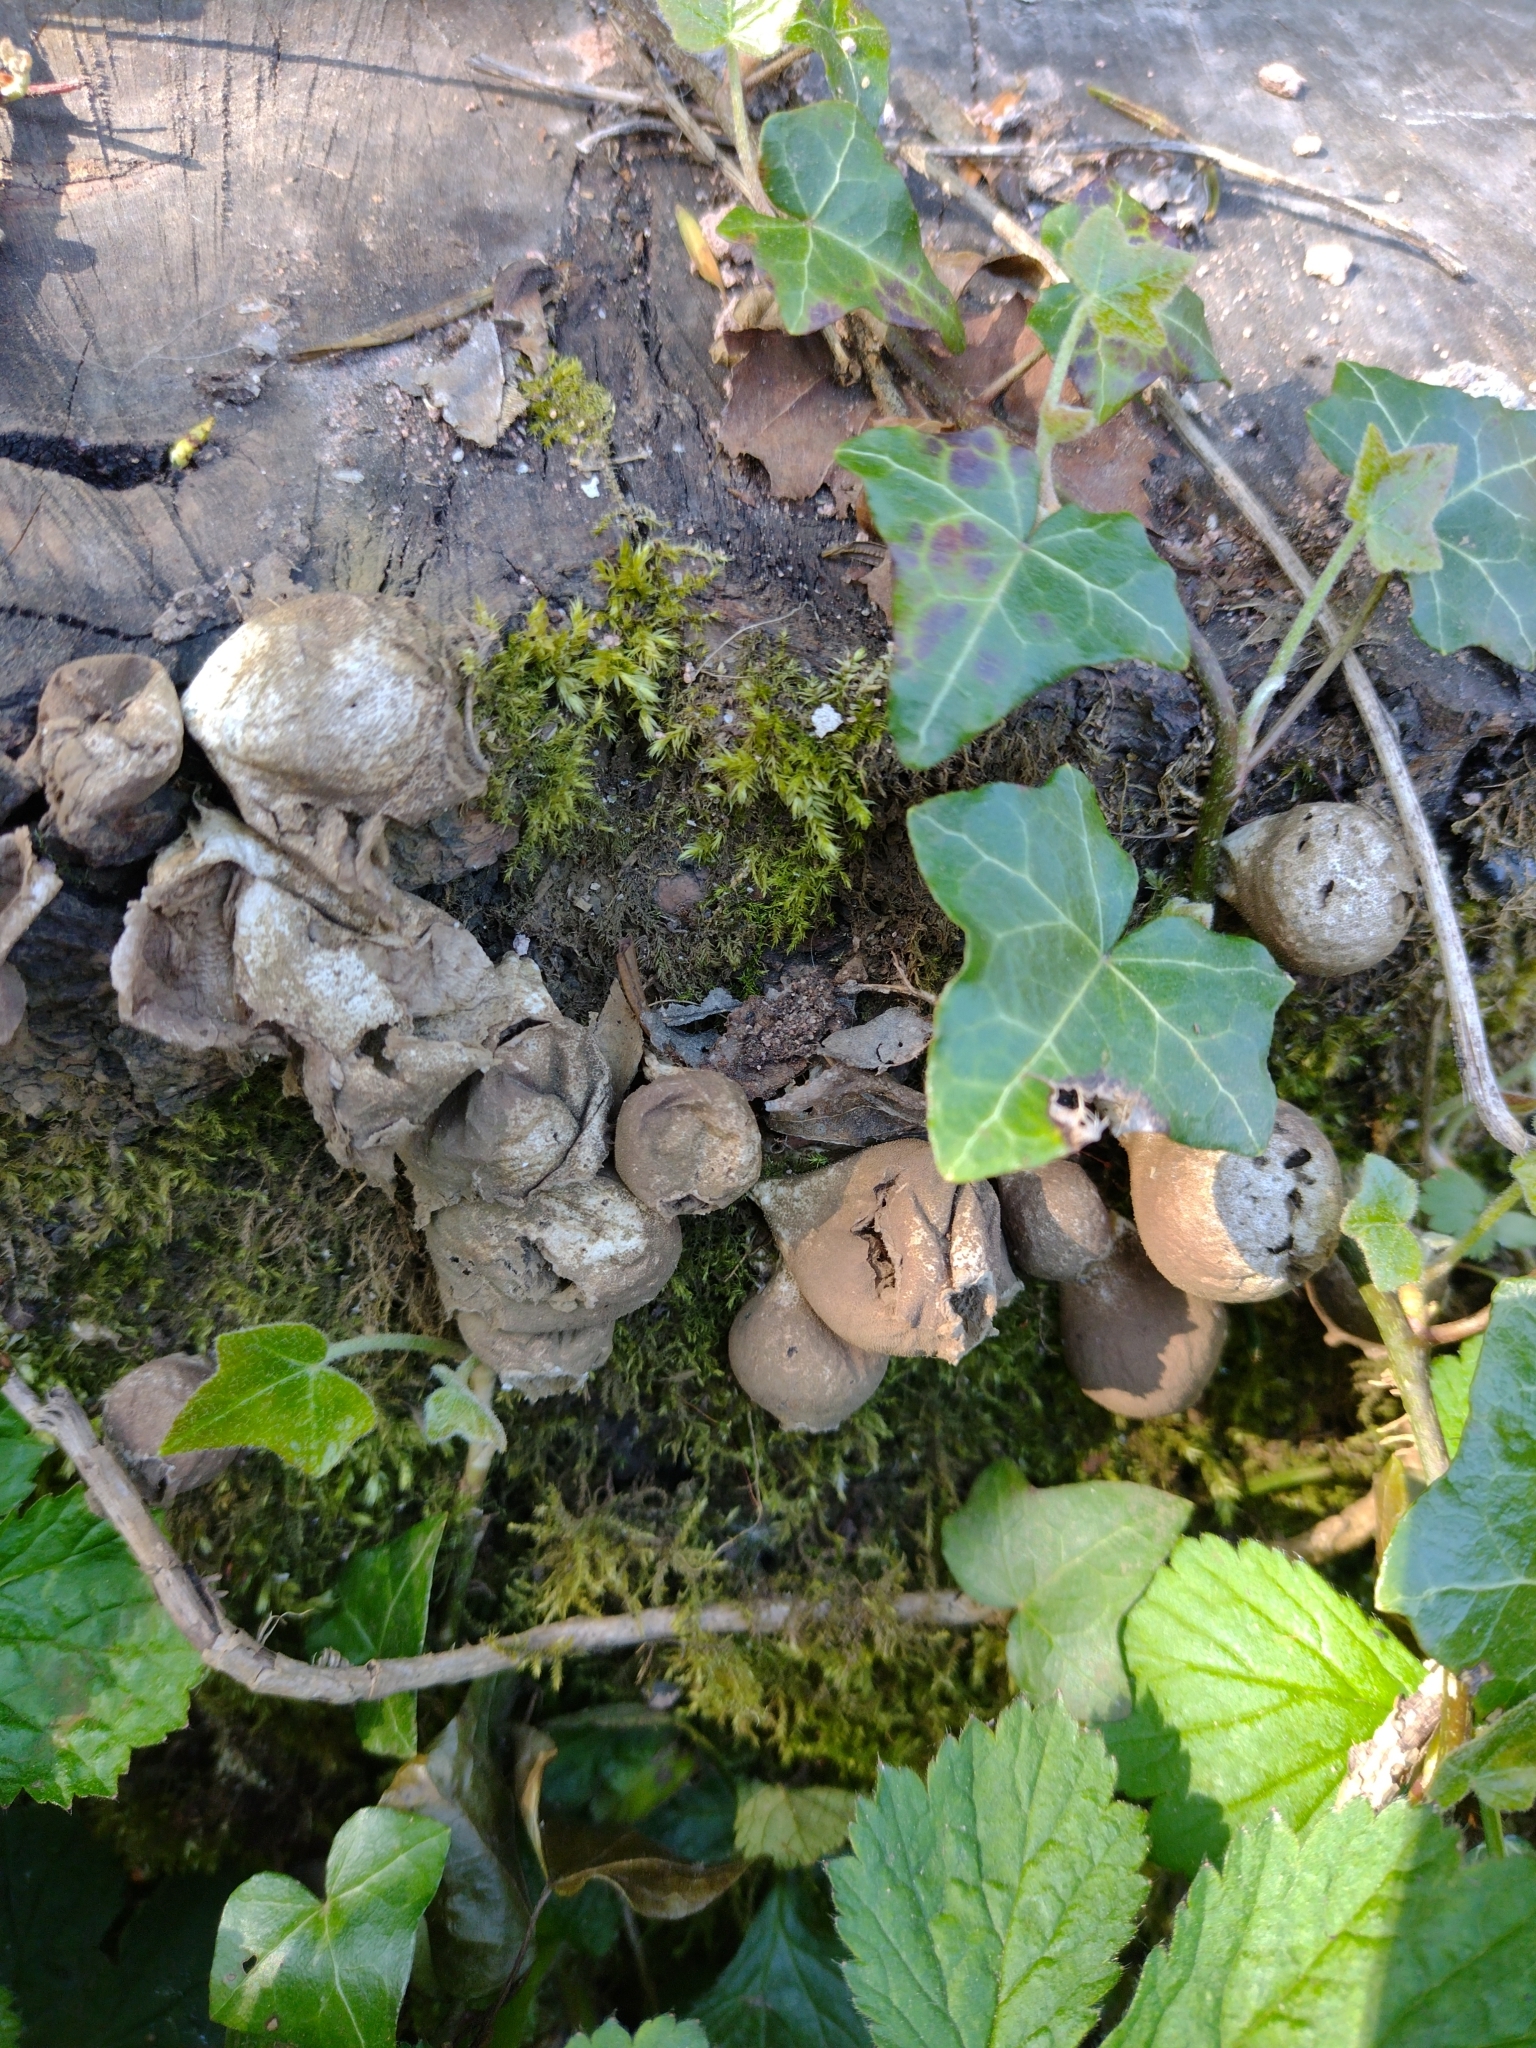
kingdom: Fungi
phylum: Basidiomycota
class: Agaricomycetes
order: Agaricales
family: Lycoperdaceae
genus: Apioperdon
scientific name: Apioperdon pyriforme
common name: Pear-shaped puffball
